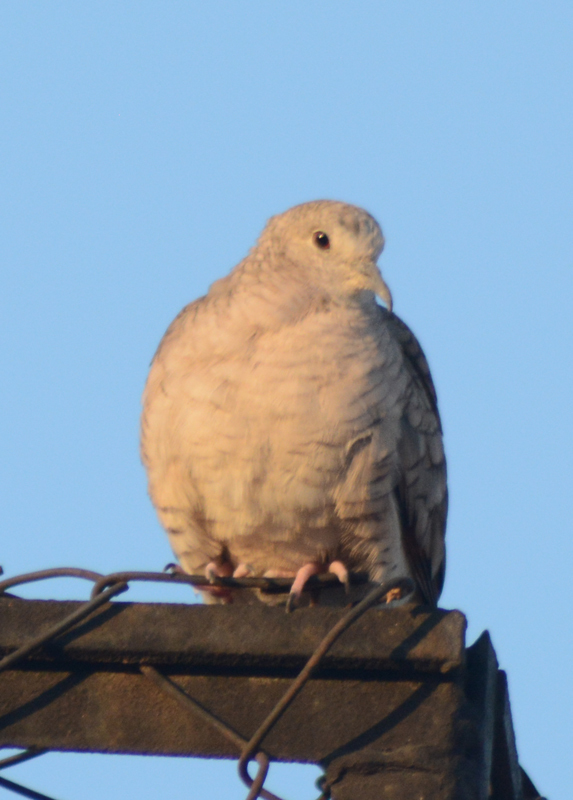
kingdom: Animalia
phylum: Chordata
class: Aves
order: Columbiformes
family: Columbidae
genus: Columbina
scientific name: Columbina inca
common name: Inca dove
